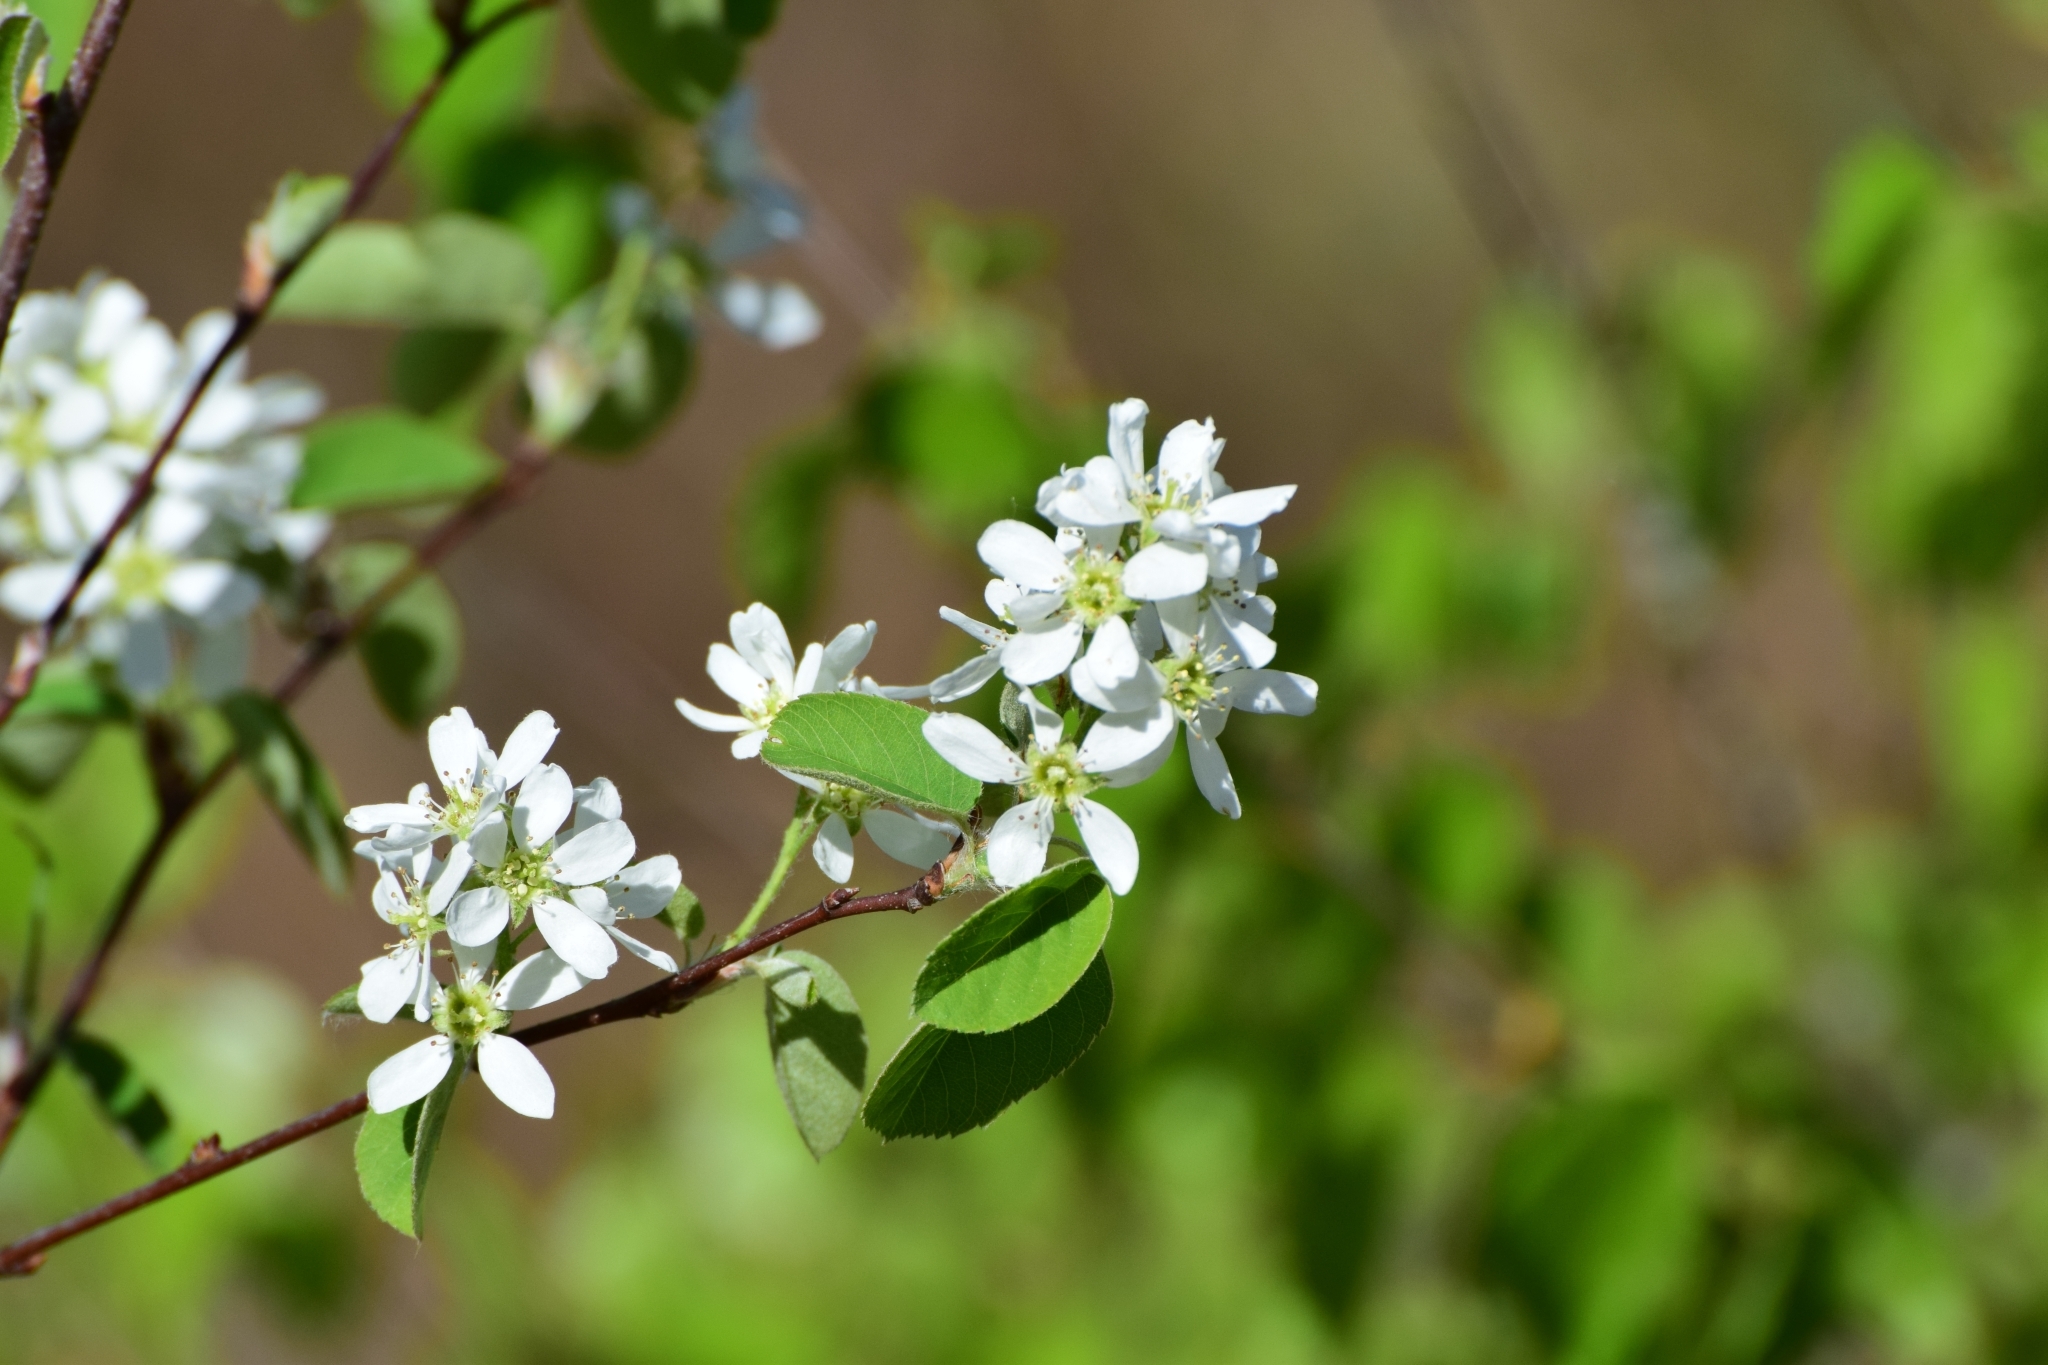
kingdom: Plantae
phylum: Tracheophyta
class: Magnoliopsida
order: Rosales
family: Rosaceae
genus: Amelanchier
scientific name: Amelanchier
